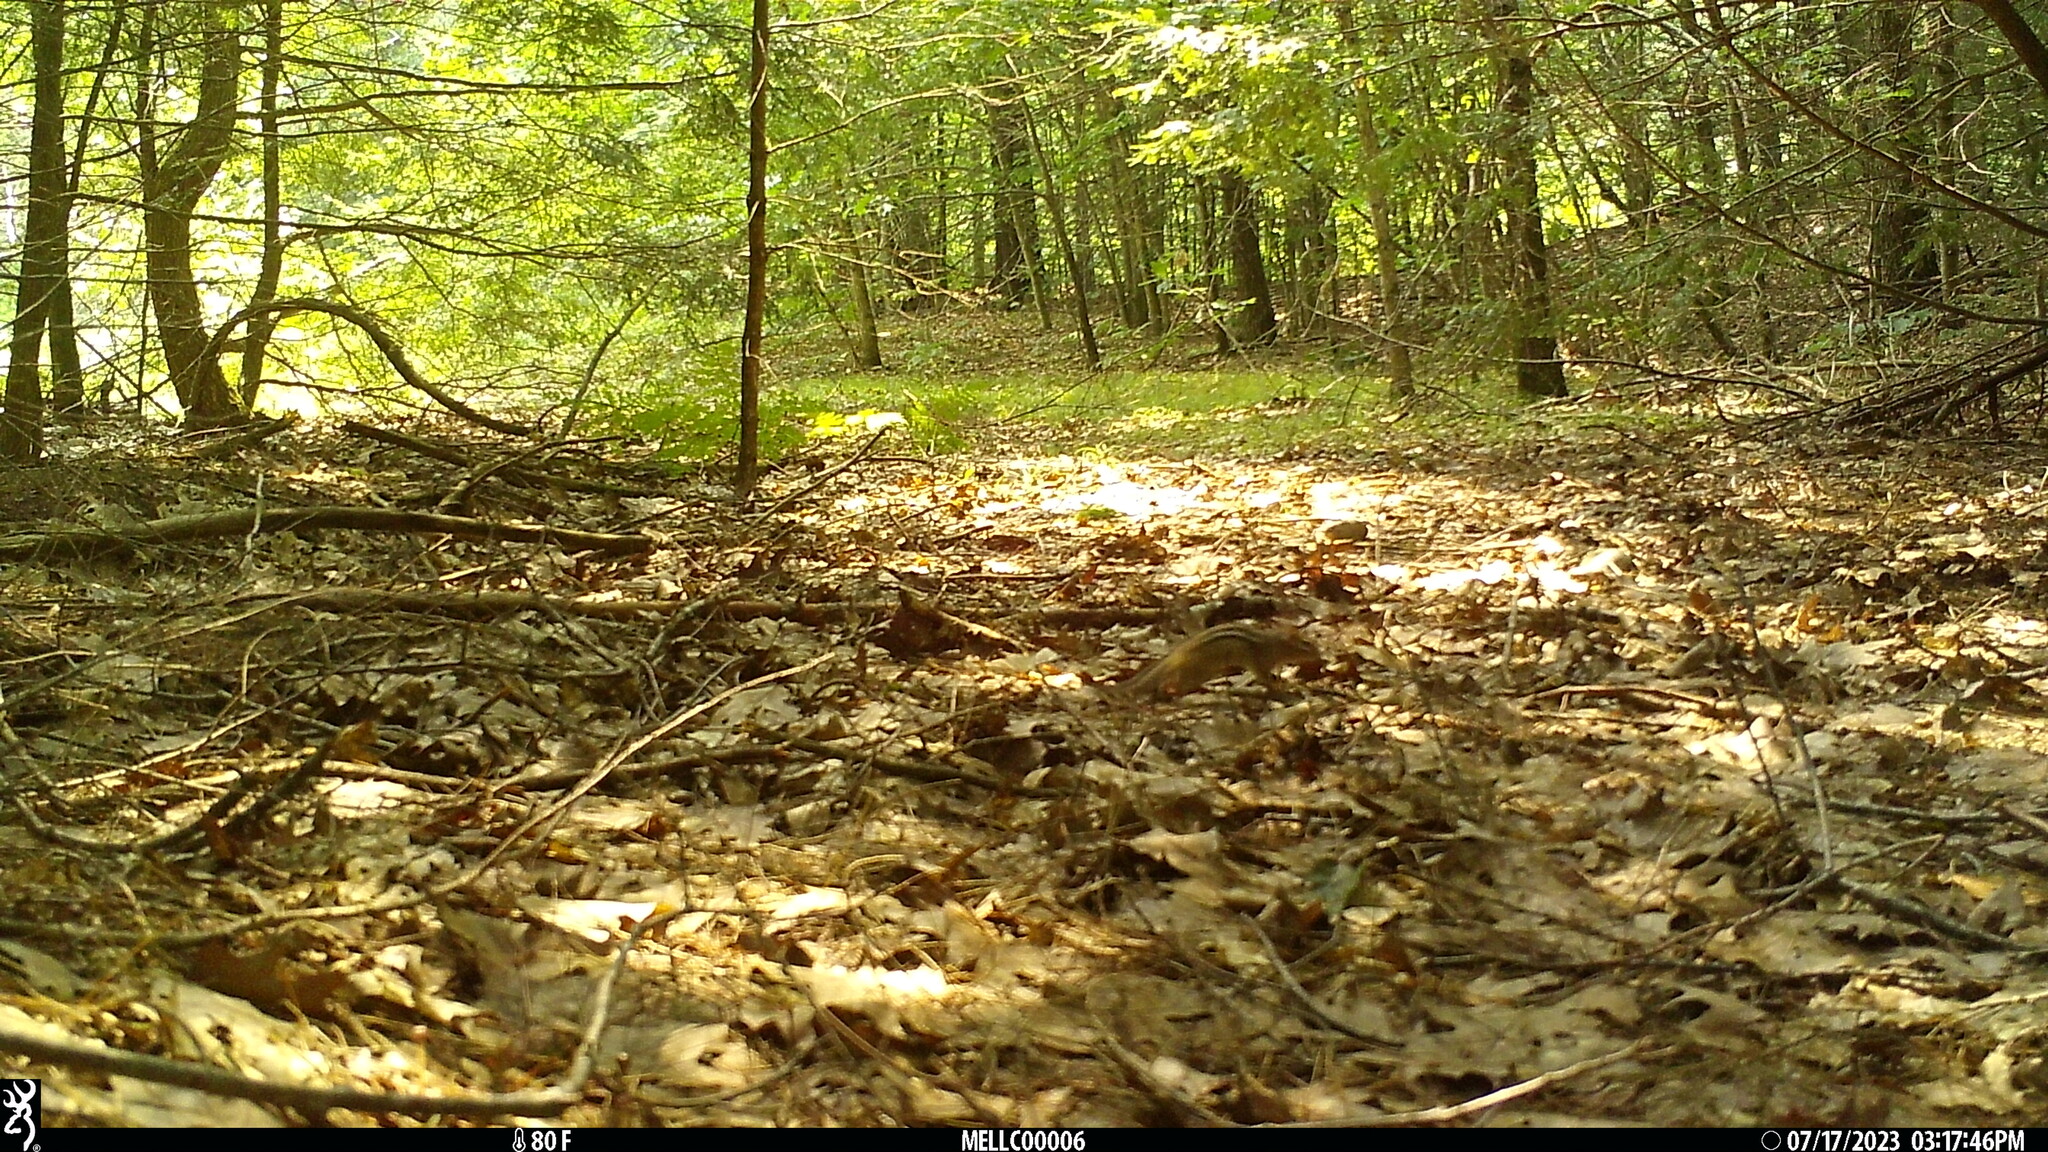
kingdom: Animalia
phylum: Chordata
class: Mammalia
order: Rodentia
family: Sciuridae
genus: Tamias
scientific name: Tamias striatus
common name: Eastern chipmunk
